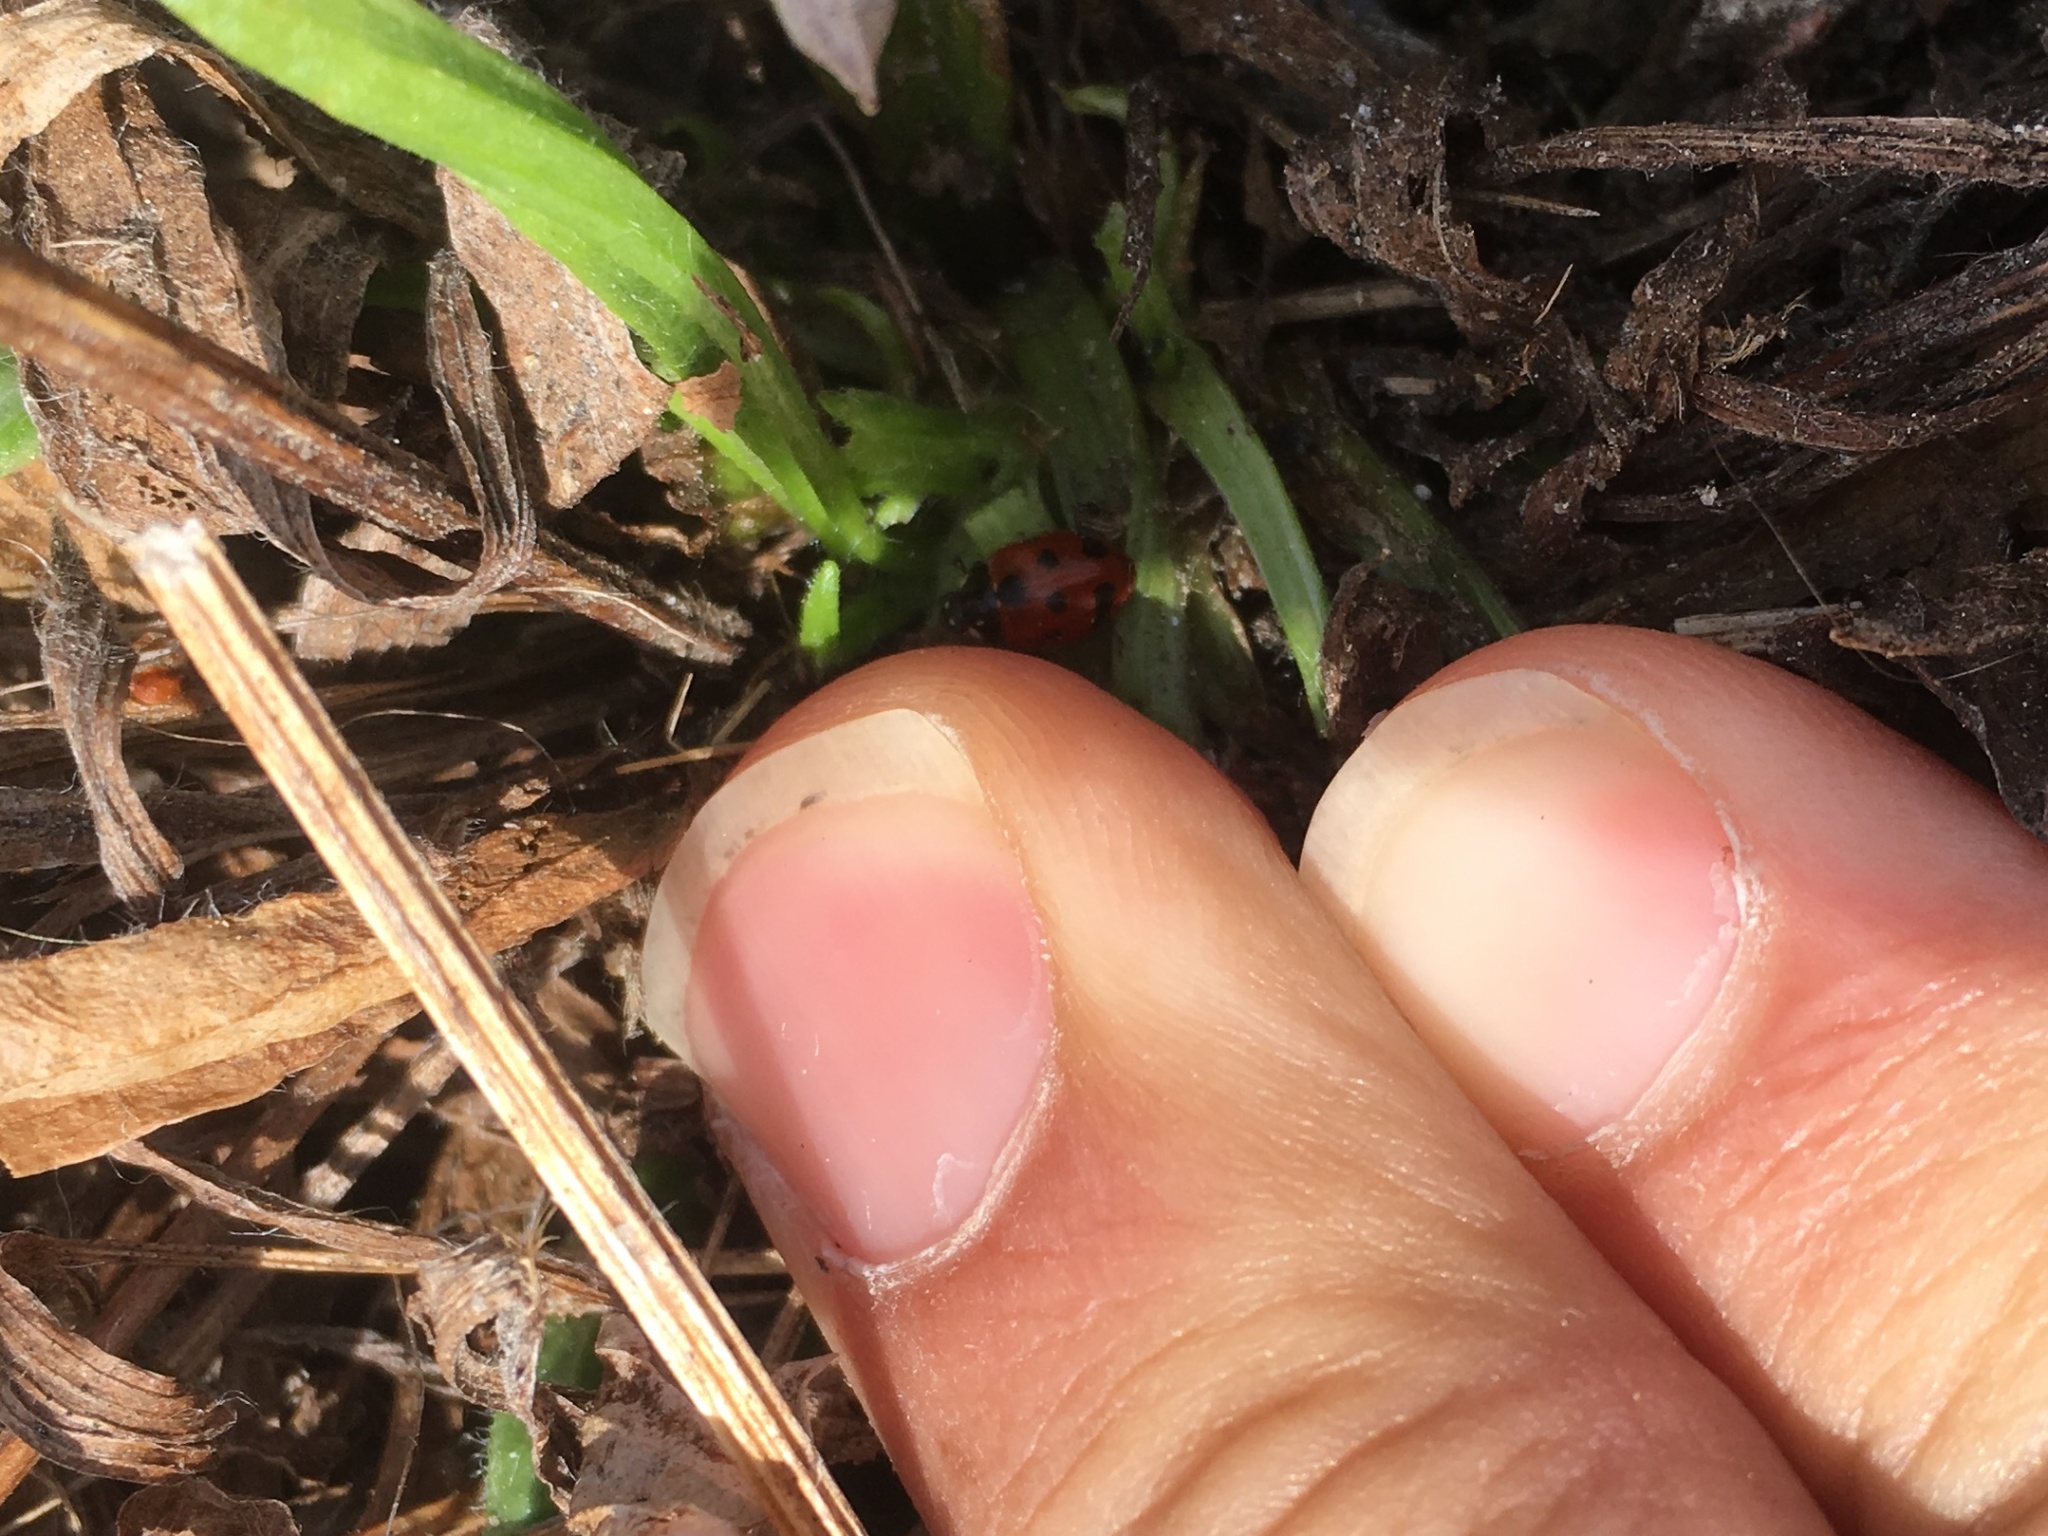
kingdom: Animalia
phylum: Arthropoda
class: Insecta
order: Coleoptera
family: Coccinellidae
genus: Coccinella
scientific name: Coccinella undecimpunctata
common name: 11-spot ladybird
